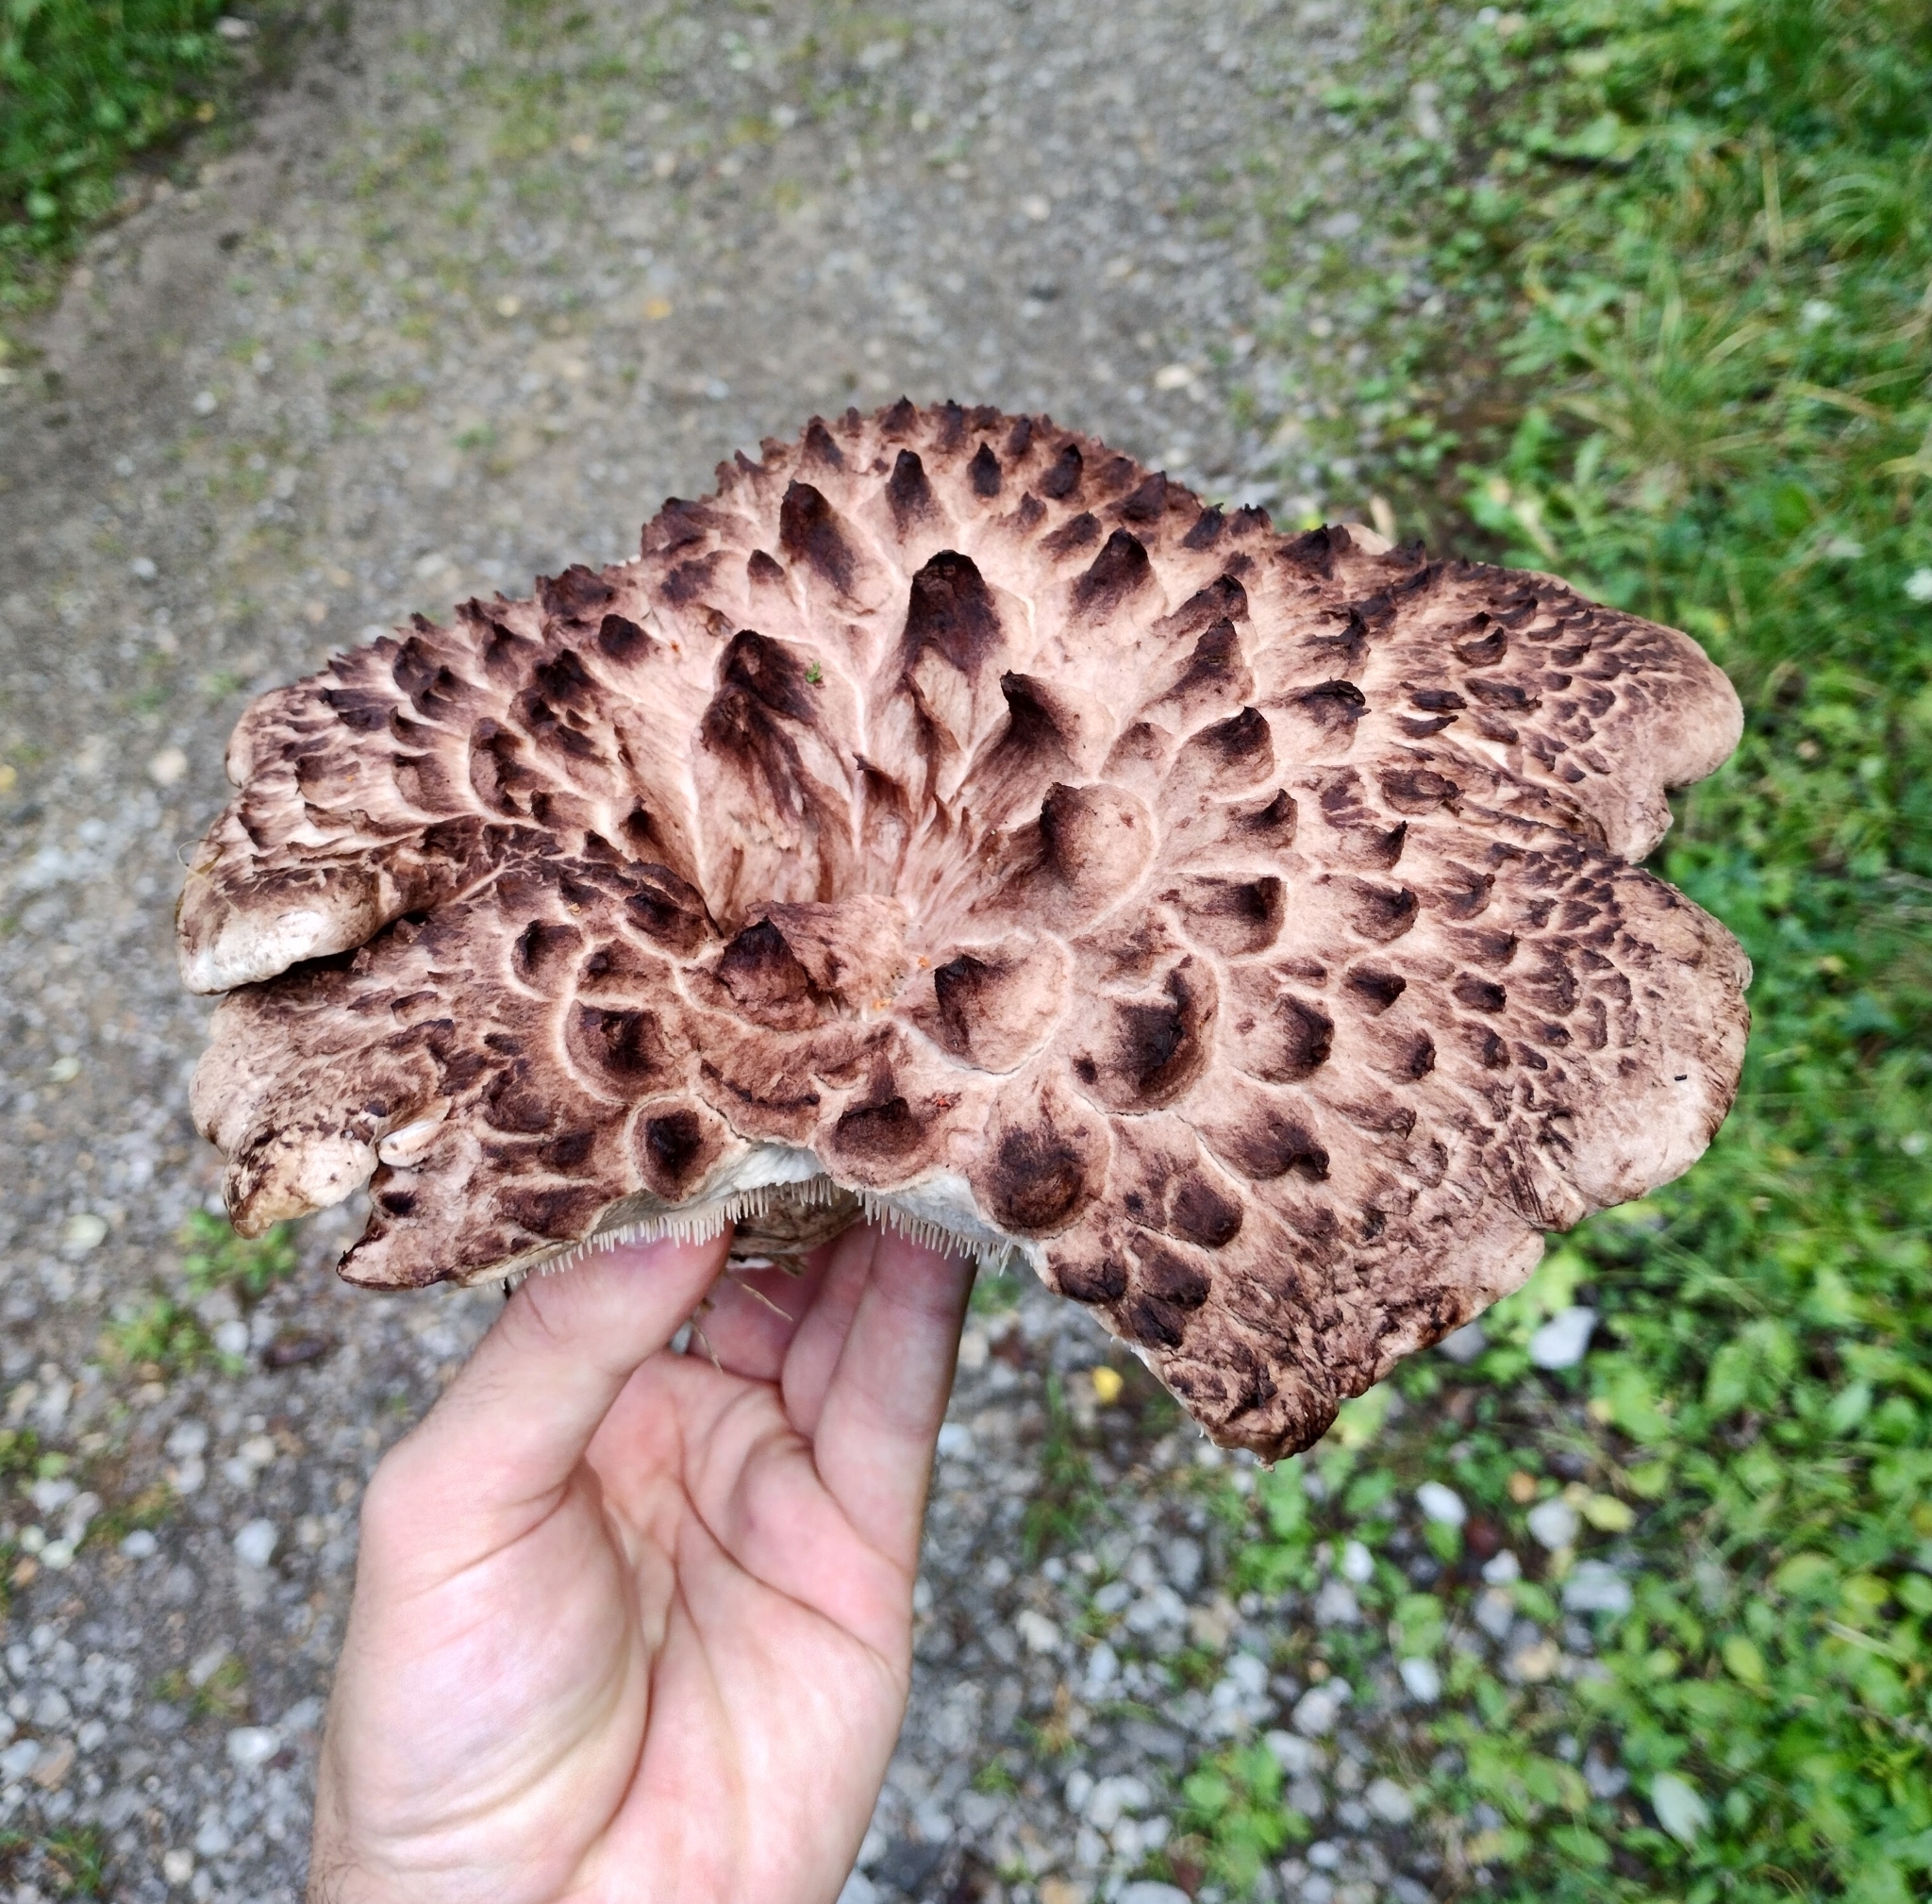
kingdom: Fungi
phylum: Basidiomycota
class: Agaricomycetes
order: Thelephorales
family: Bankeraceae
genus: Sarcodon
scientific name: Sarcodon imbricatus
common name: Shingled hedgehog
